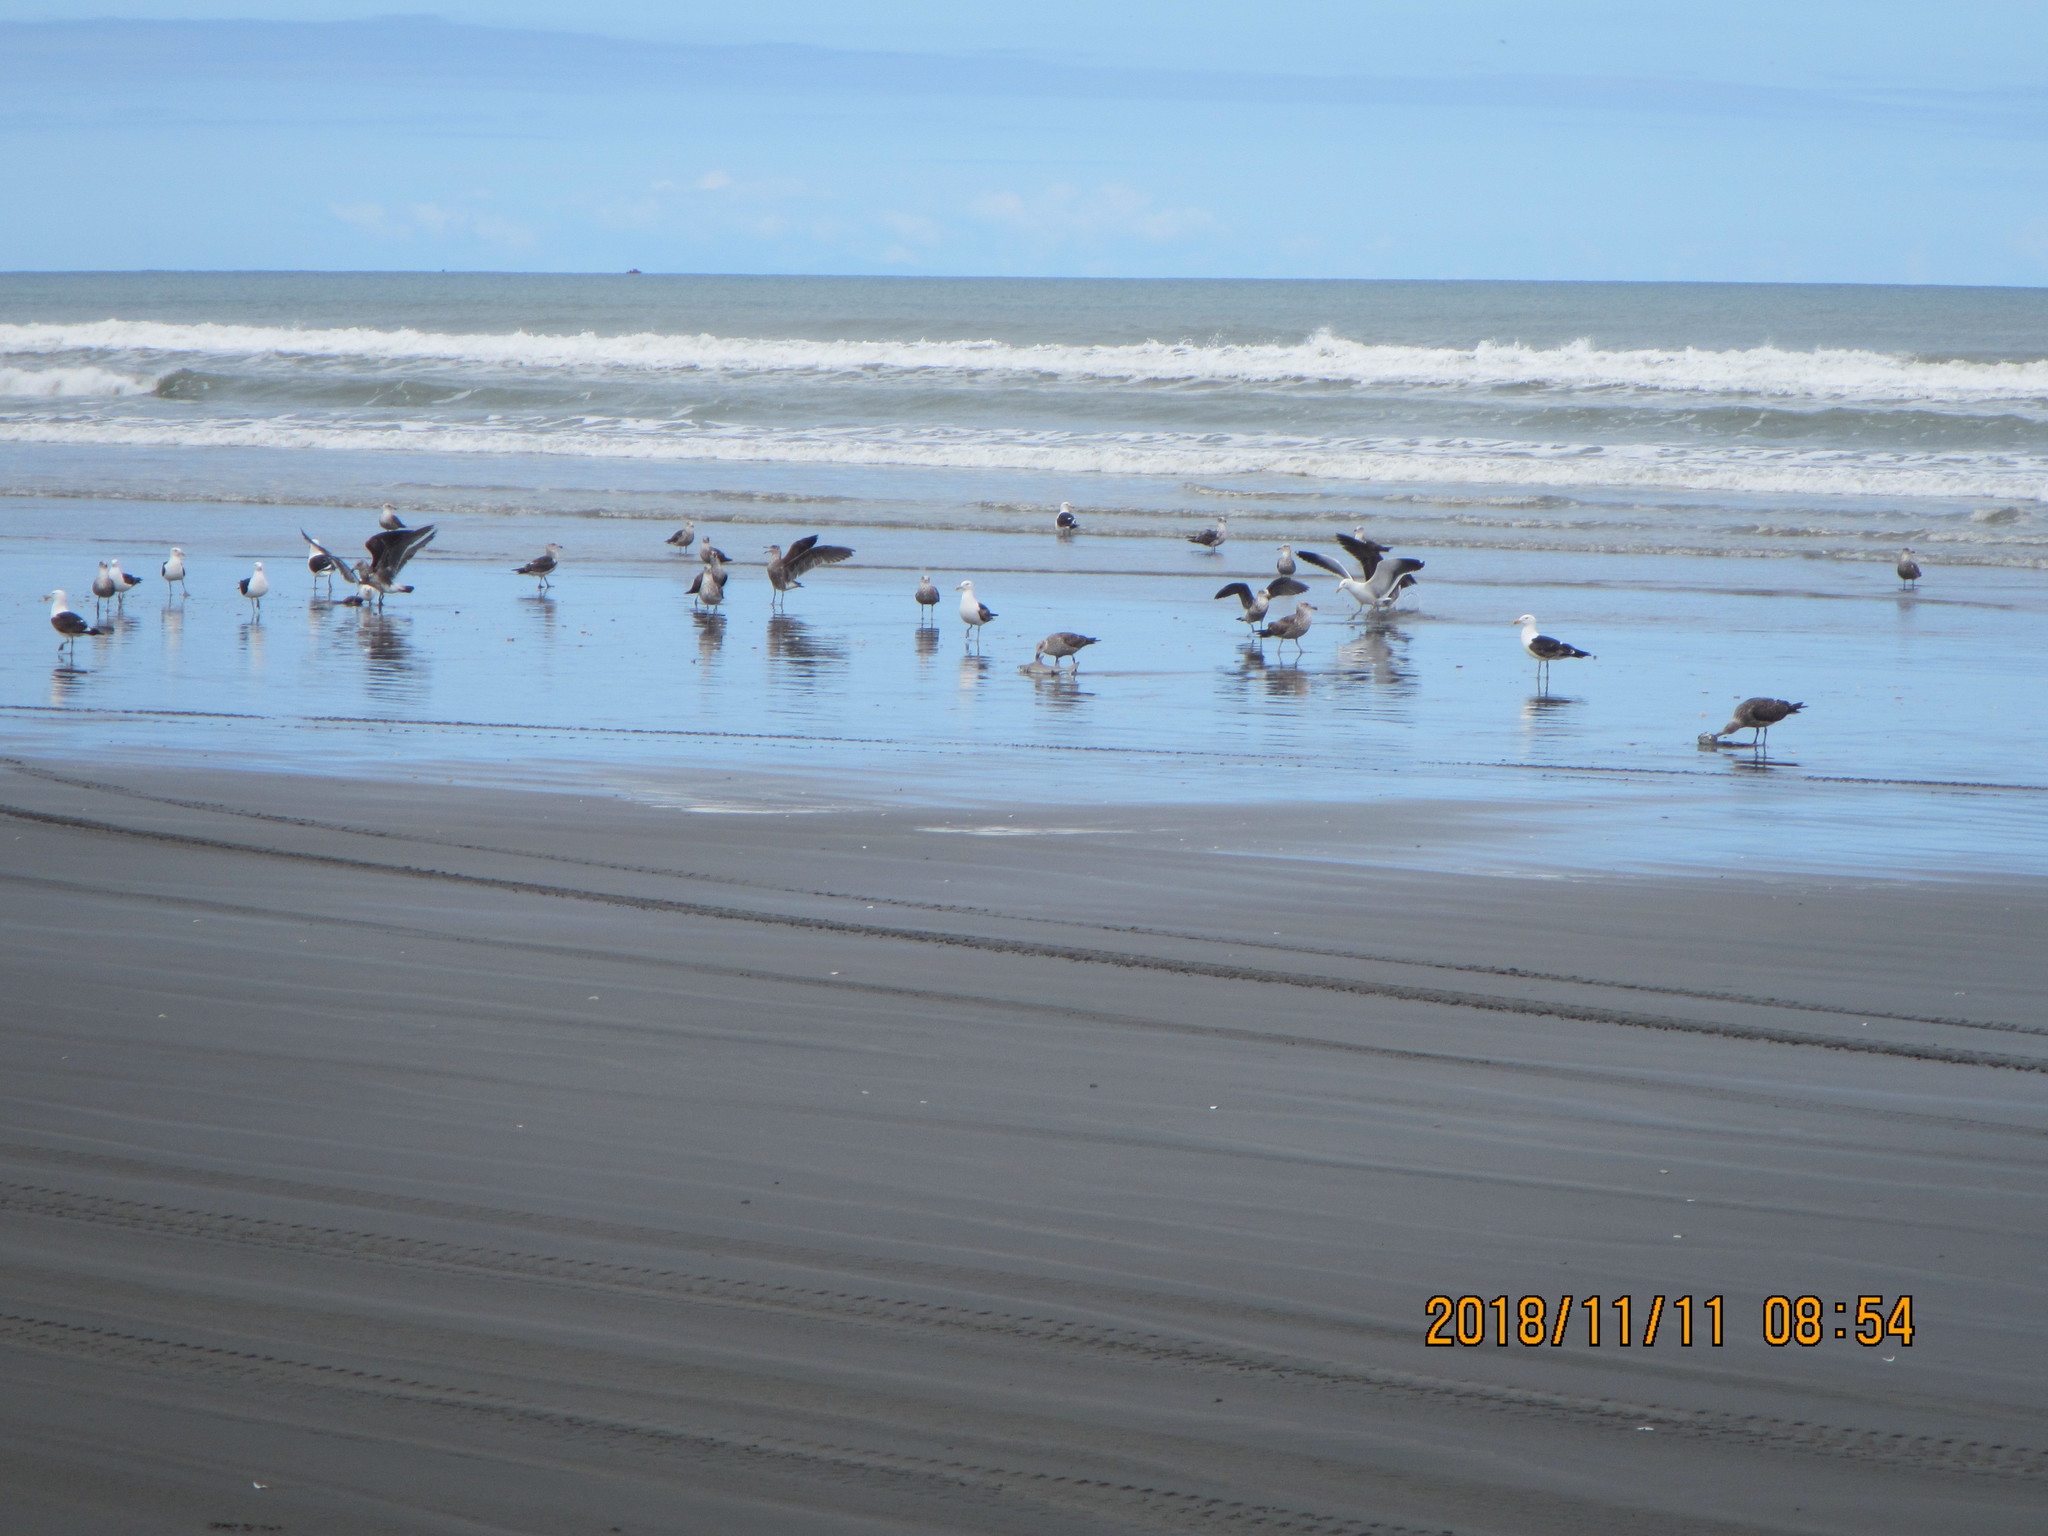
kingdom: Animalia
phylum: Chordata
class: Aves
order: Charadriiformes
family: Laridae
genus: Larus
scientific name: Larus dominicanus
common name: Kelp gull
